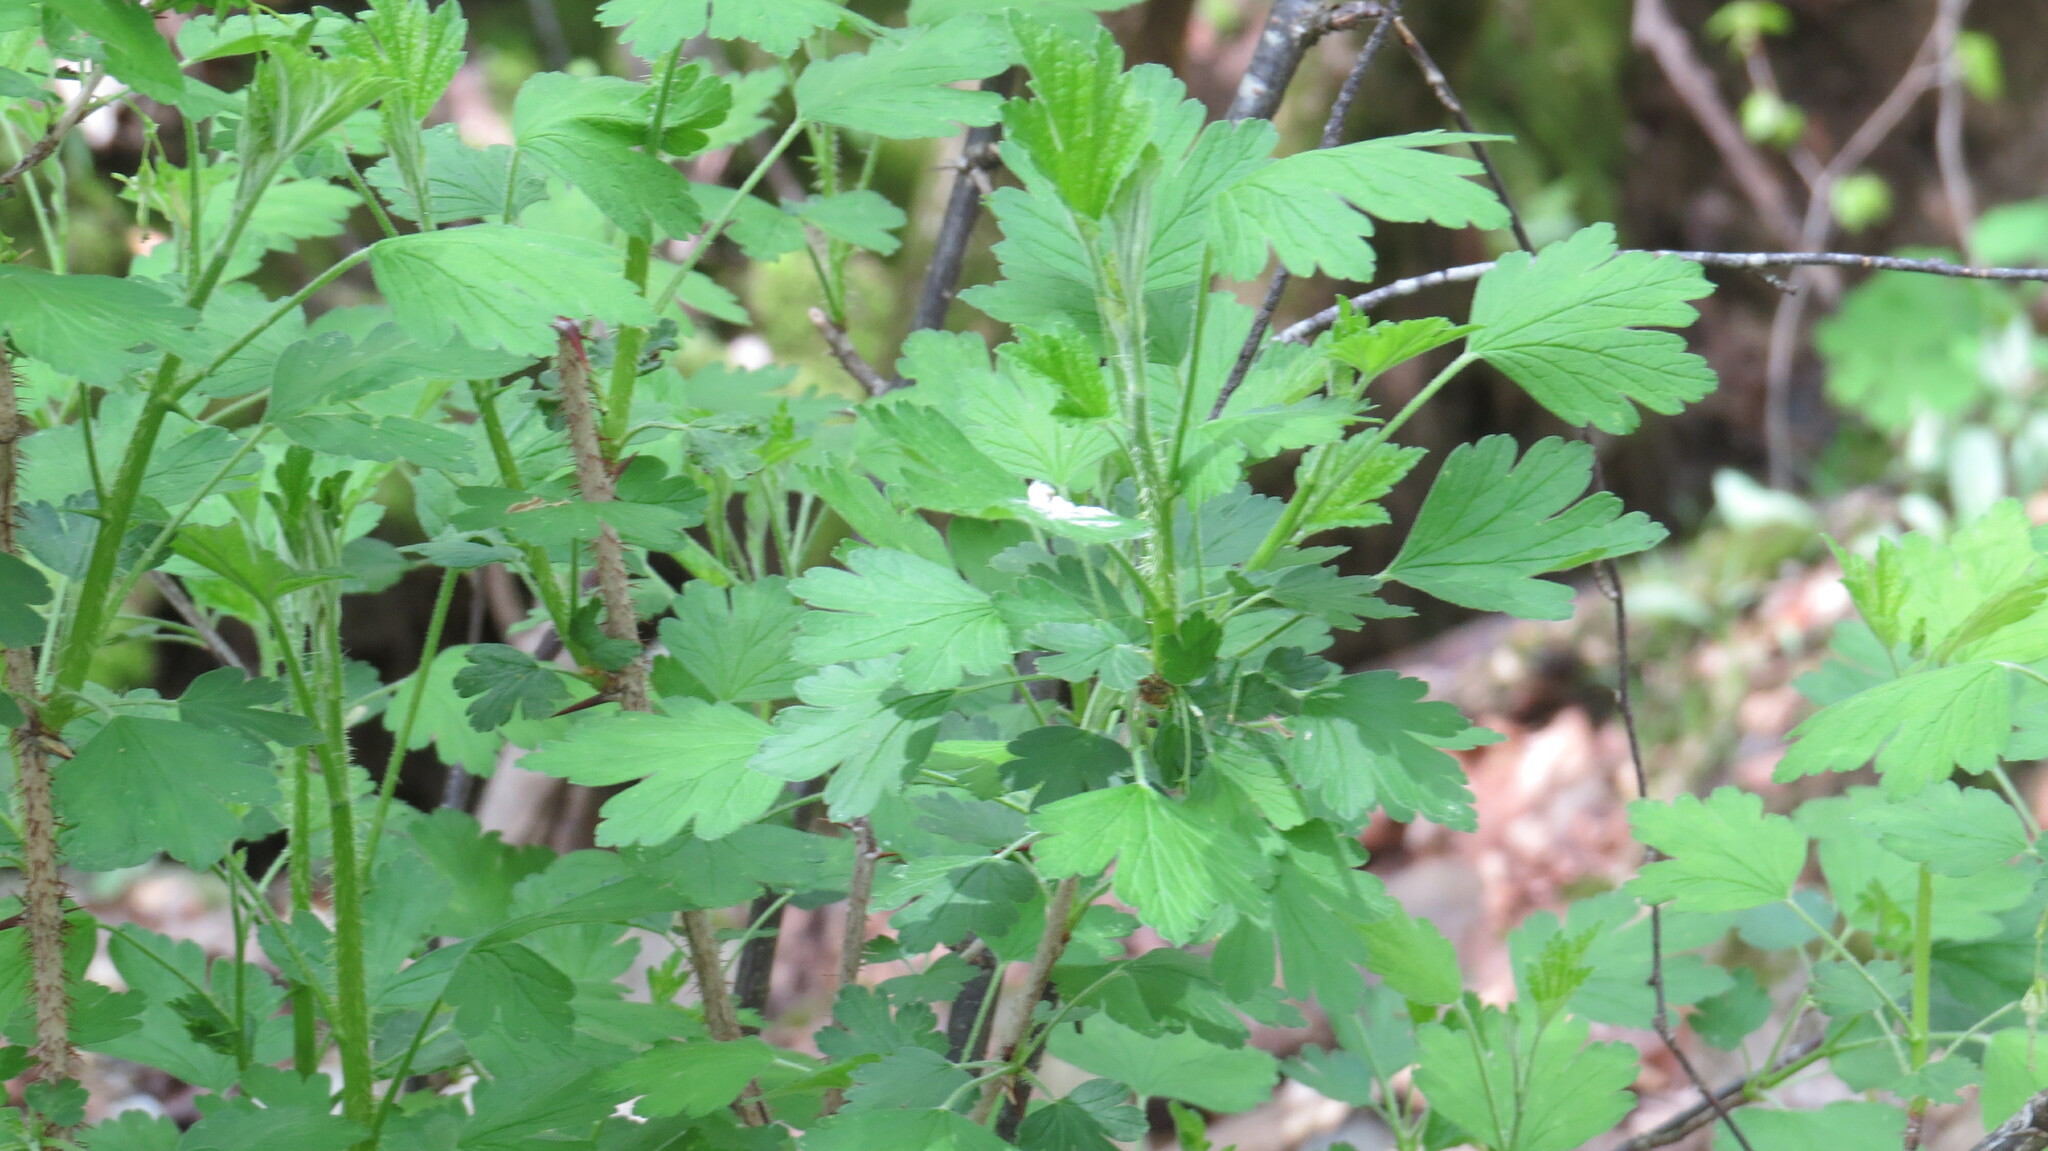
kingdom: Plantae
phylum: Tracheophyta
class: Magnoliopsida
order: Saxifragales
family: Grossulariaceae
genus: Ribes
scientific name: Ribes missouriense
